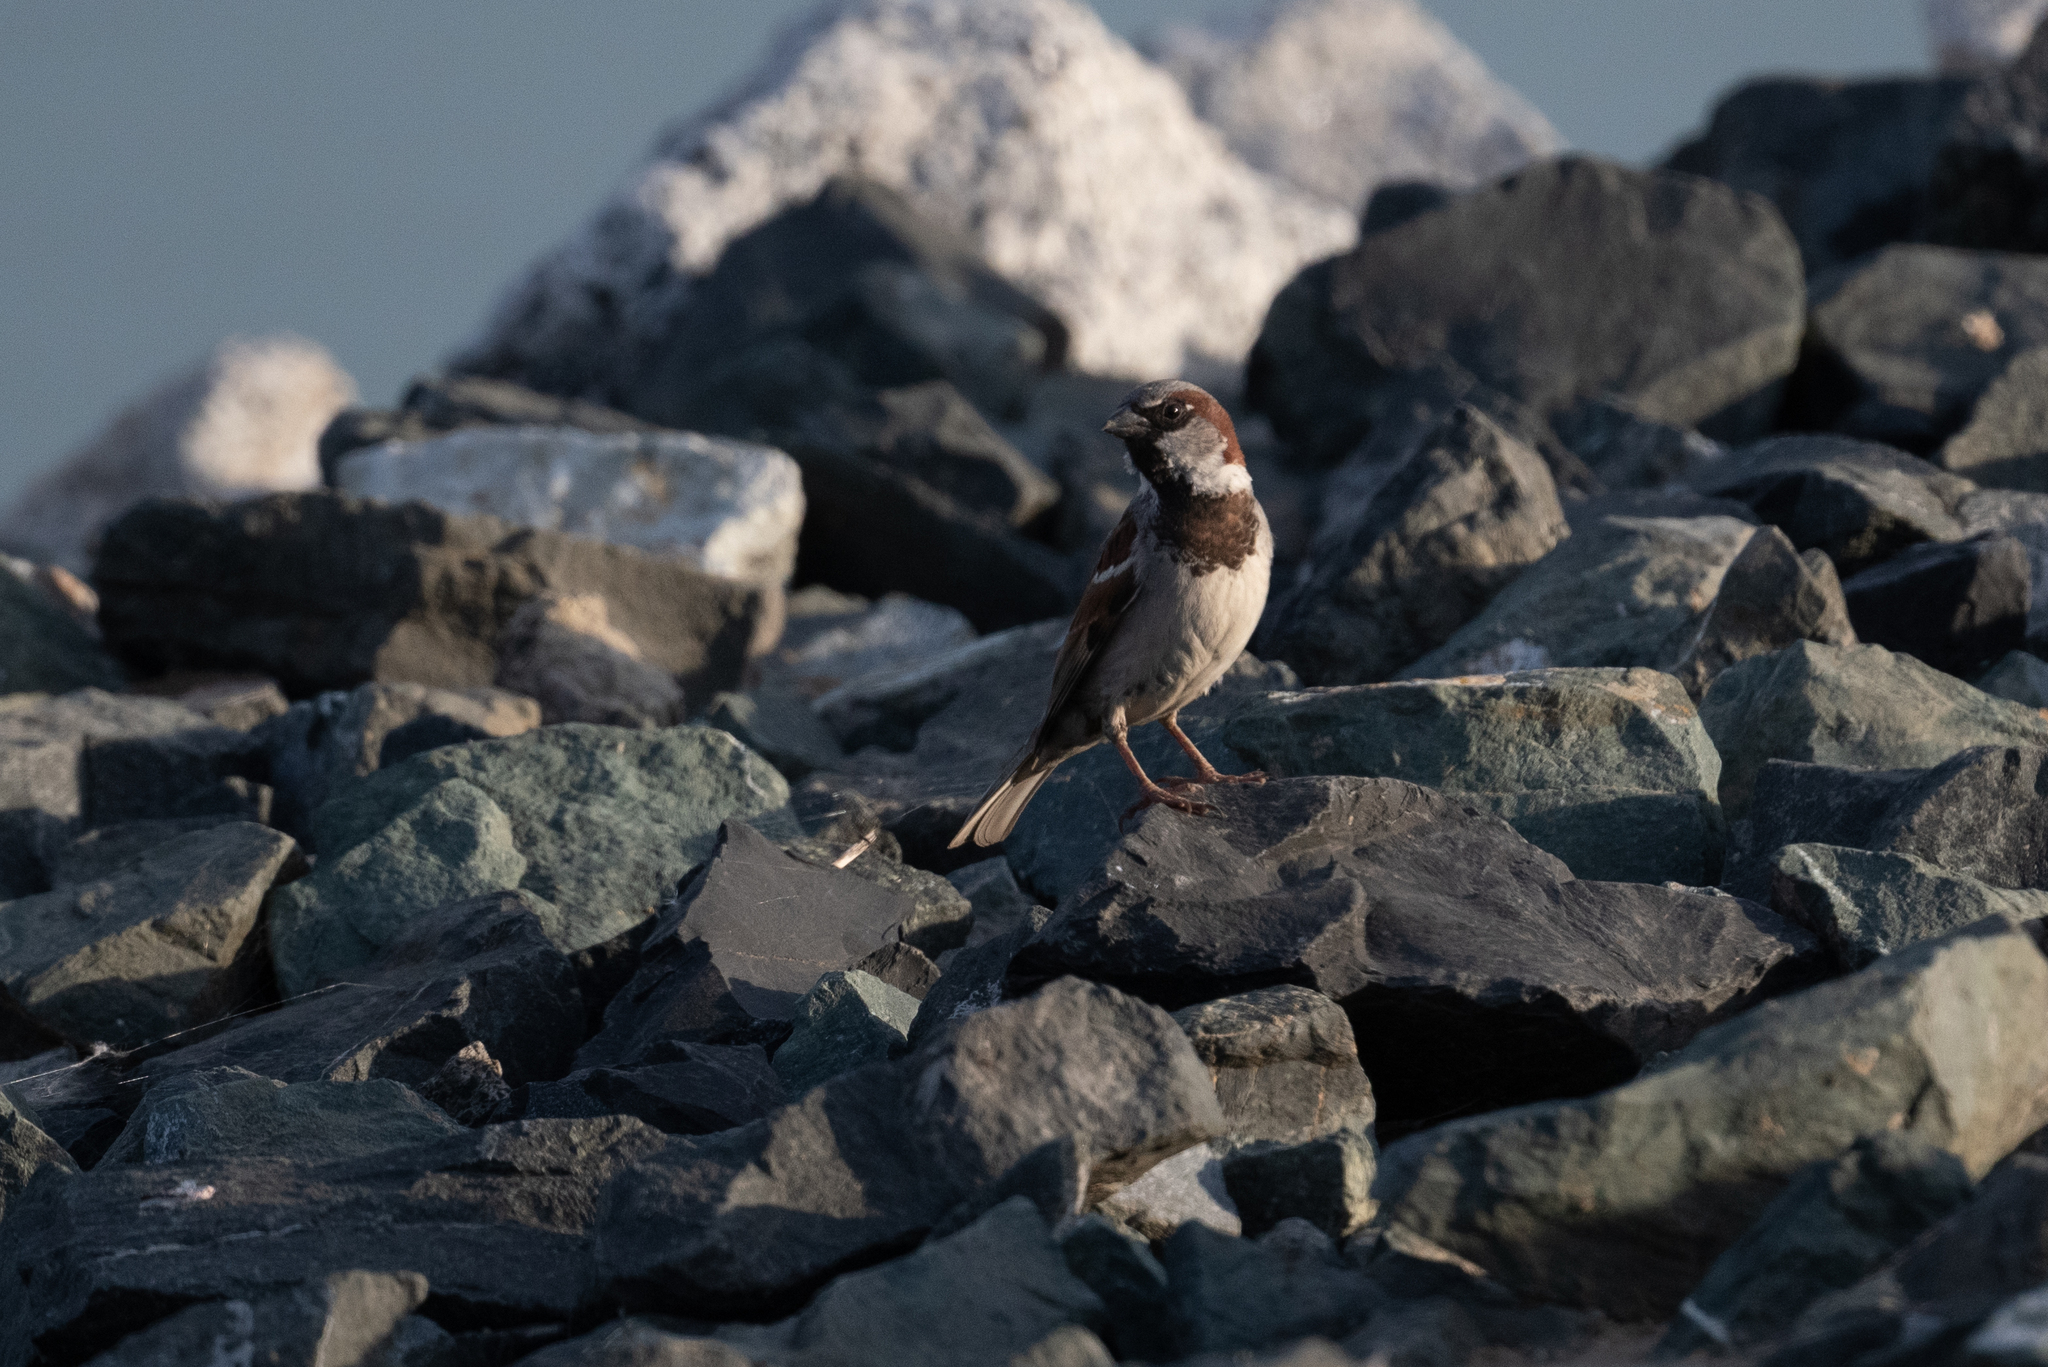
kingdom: Animalia
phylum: Chordata
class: Aves
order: Passeriformes
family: Passeridae
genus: Passer
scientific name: Passer domesticus
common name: House sparrow
